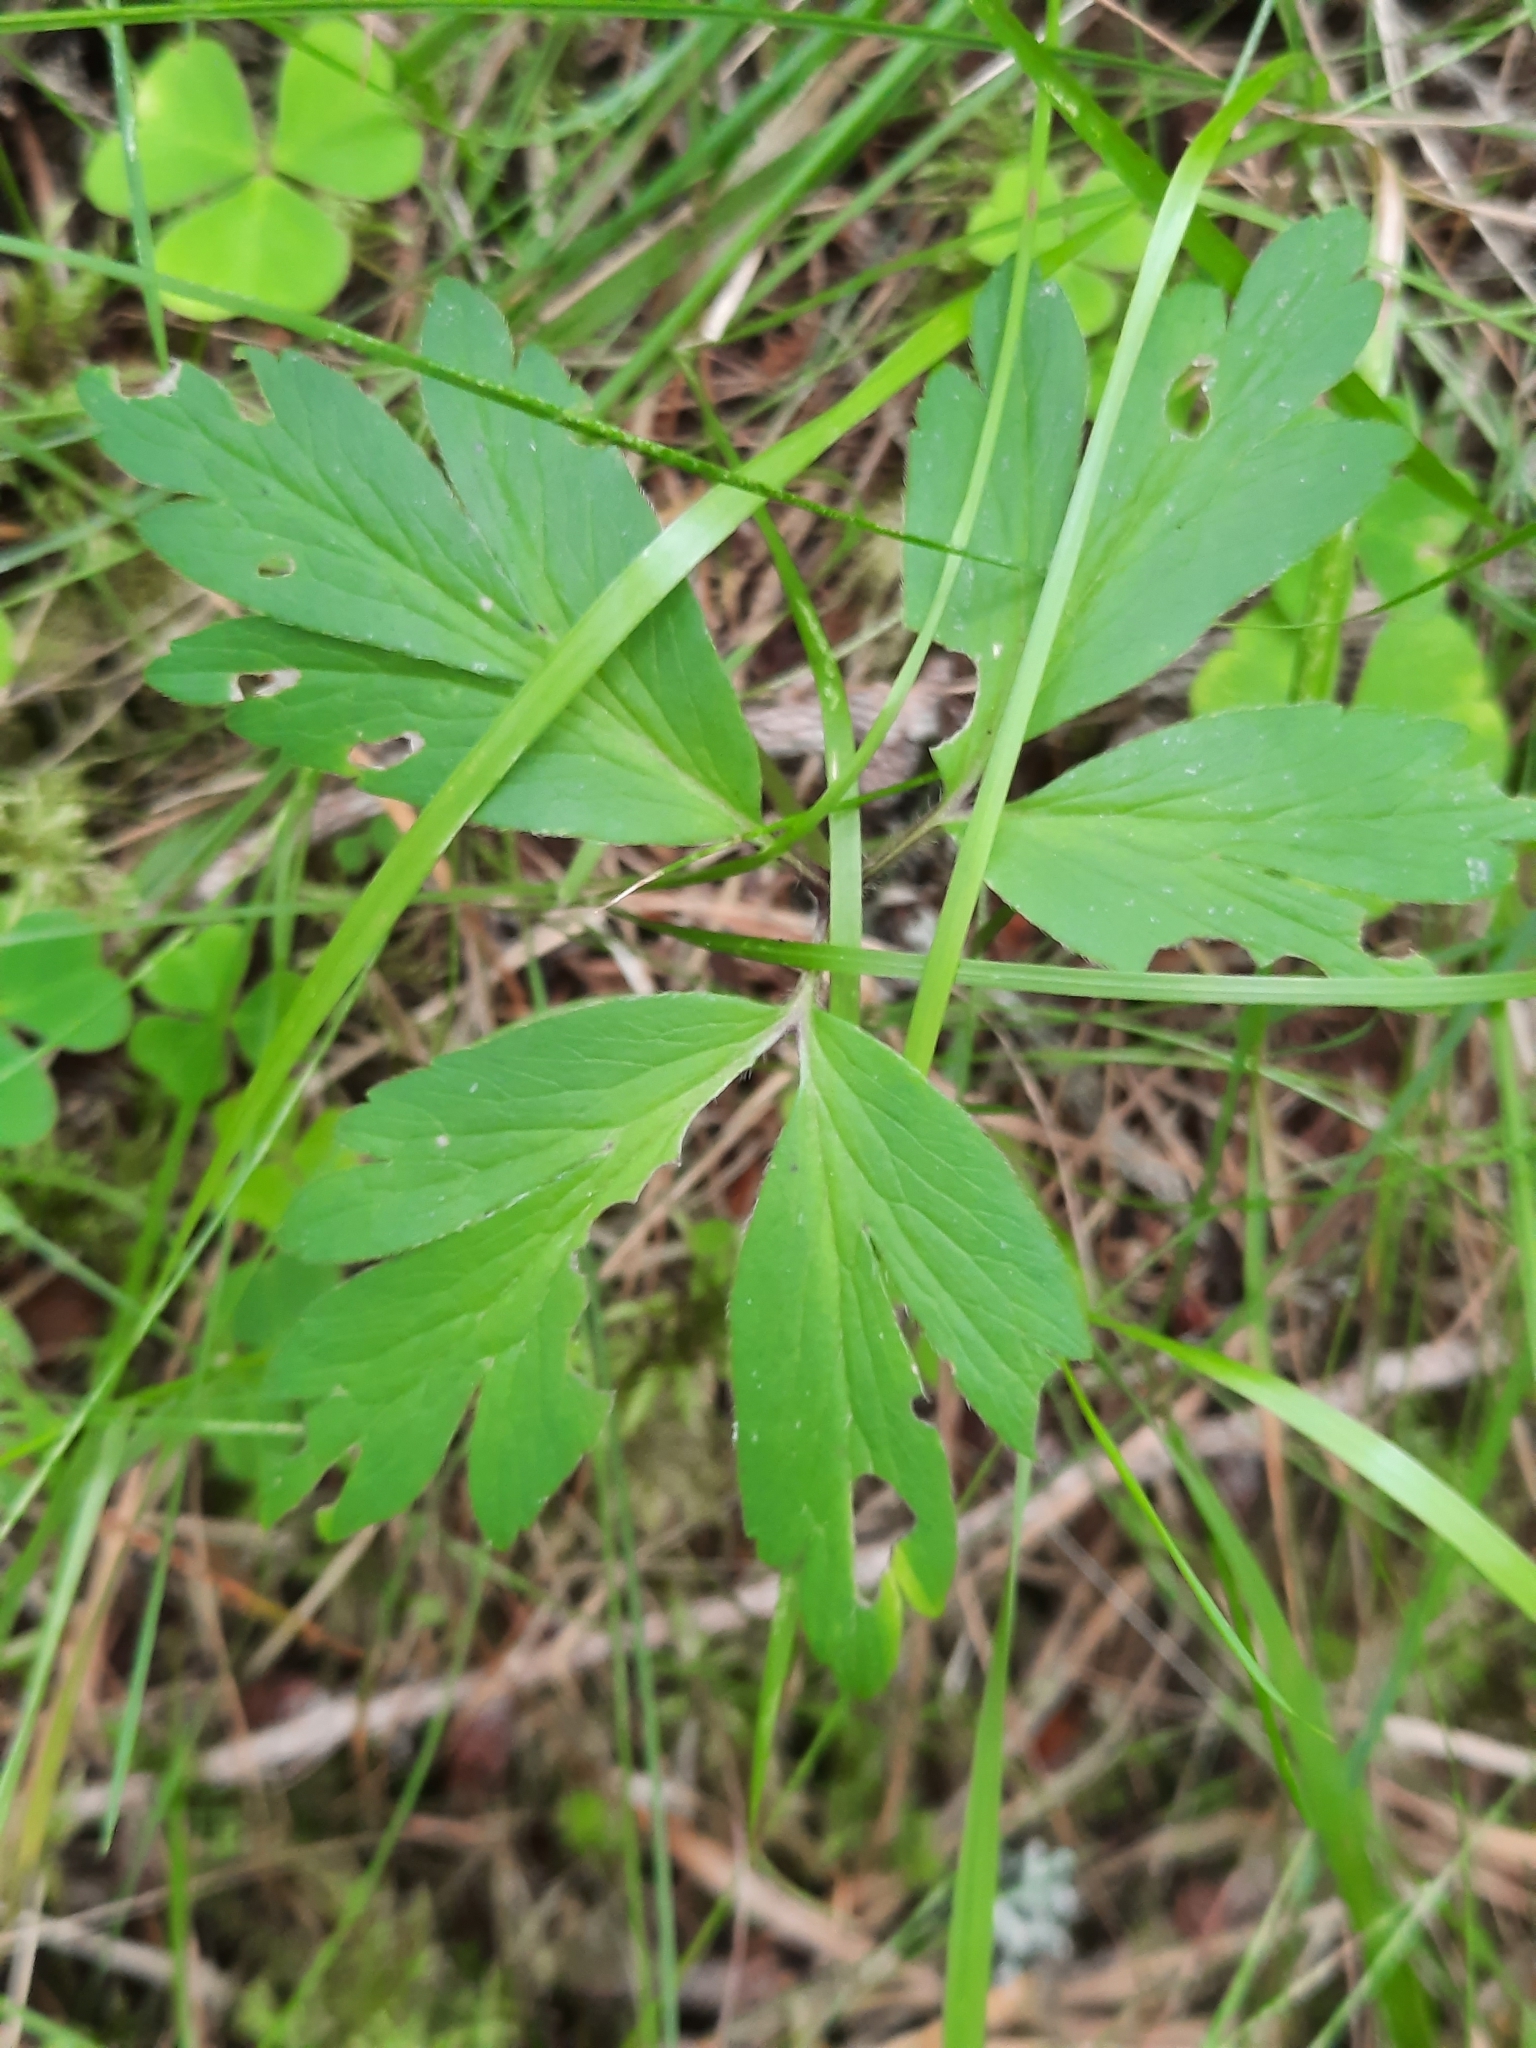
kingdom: Plantae
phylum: Tracheophyta
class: Magnoliopsida
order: Ranunculales
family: Ranunculaceae
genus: Anemone
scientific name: Anemone nemorosa
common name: Wood anemone
